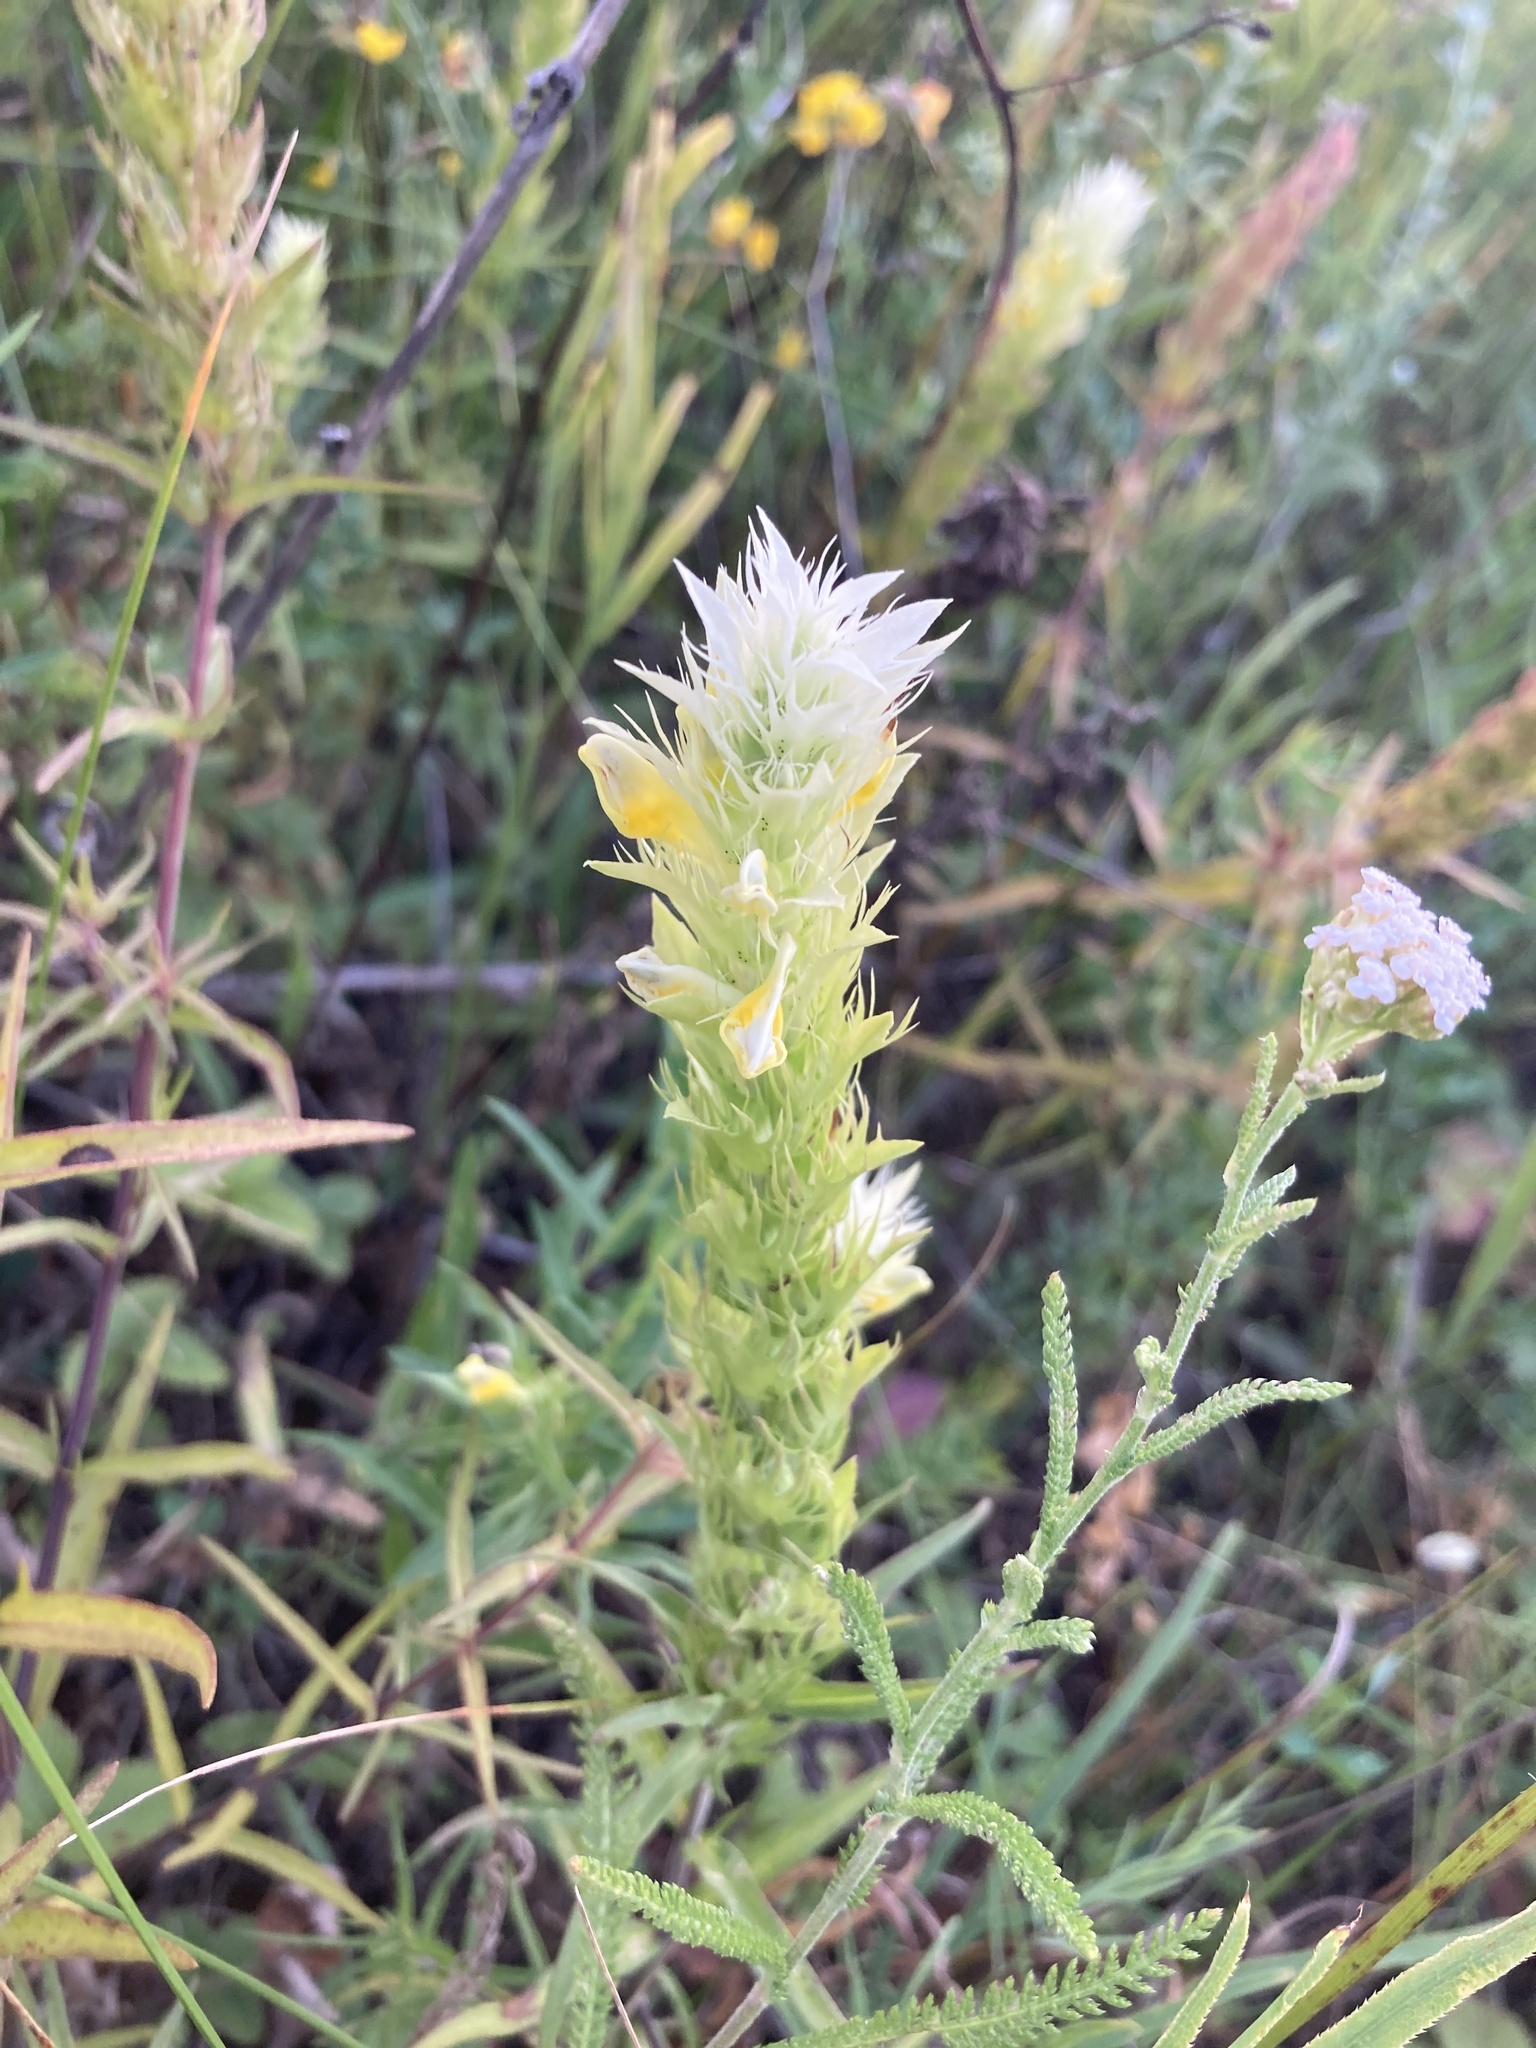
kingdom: Plantae
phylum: Tracheophyta
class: Magnoliopsida
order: Lamiales
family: Orobanchaceae
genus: Melampyrum
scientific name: Melampyrum arvense
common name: Field cow-wheat
